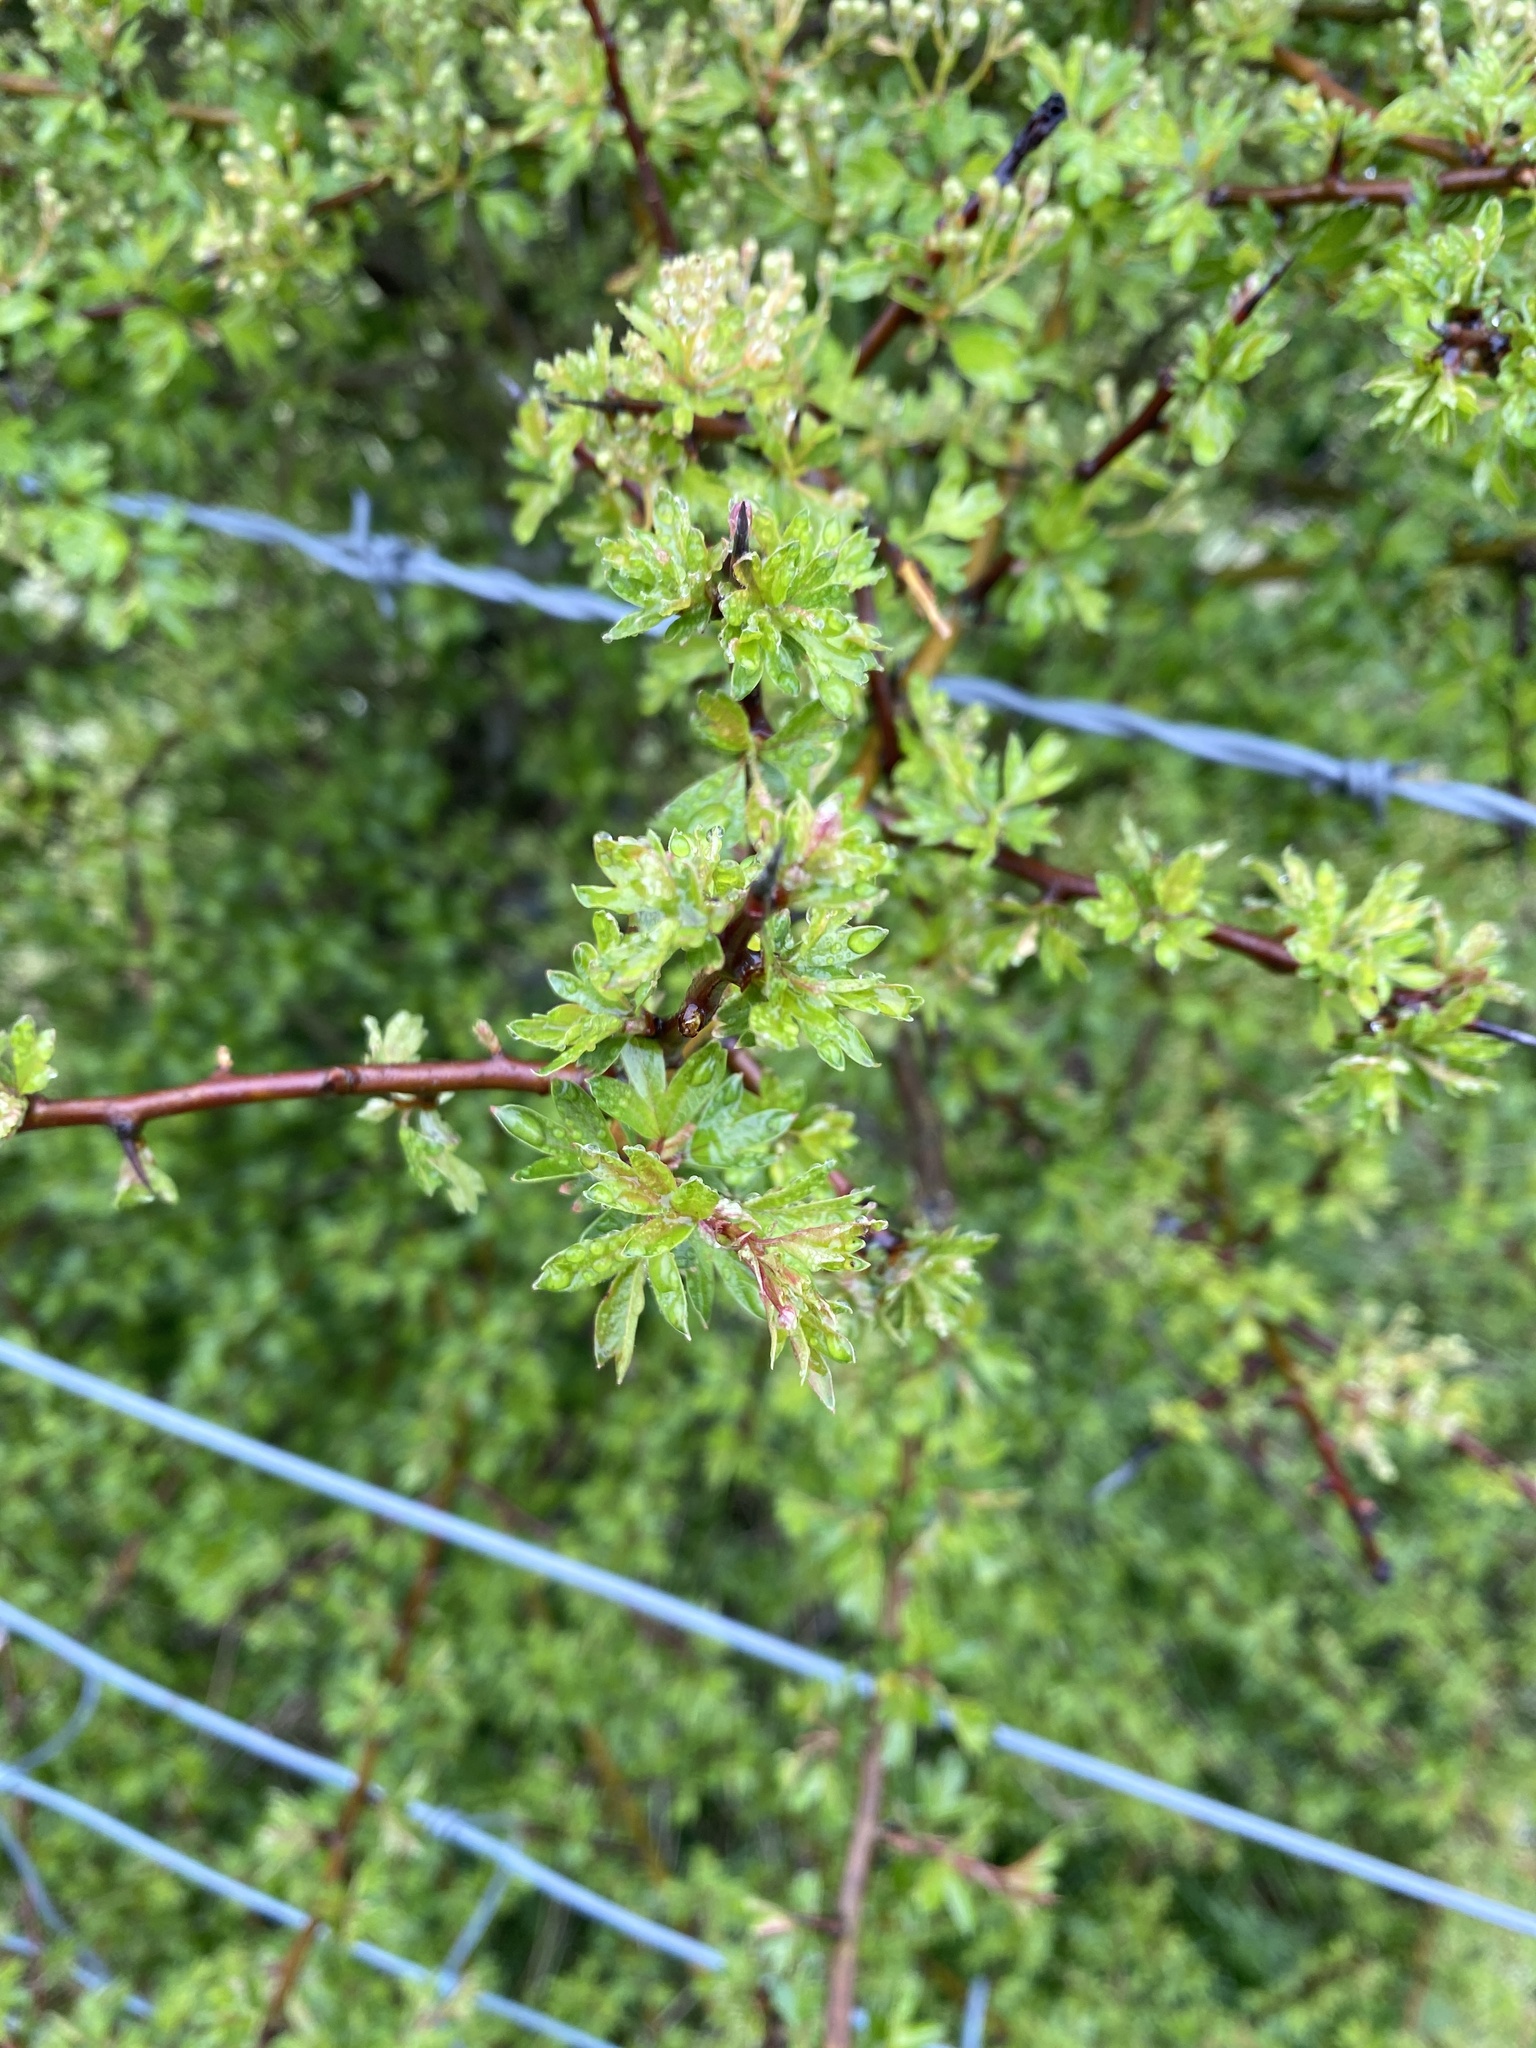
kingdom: Plantae
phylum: Tracheophyta
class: Magnoliopsida
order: Rosales
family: Rosaceae
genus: Crataegus
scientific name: Crataegus monogyna
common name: Hawthorn
